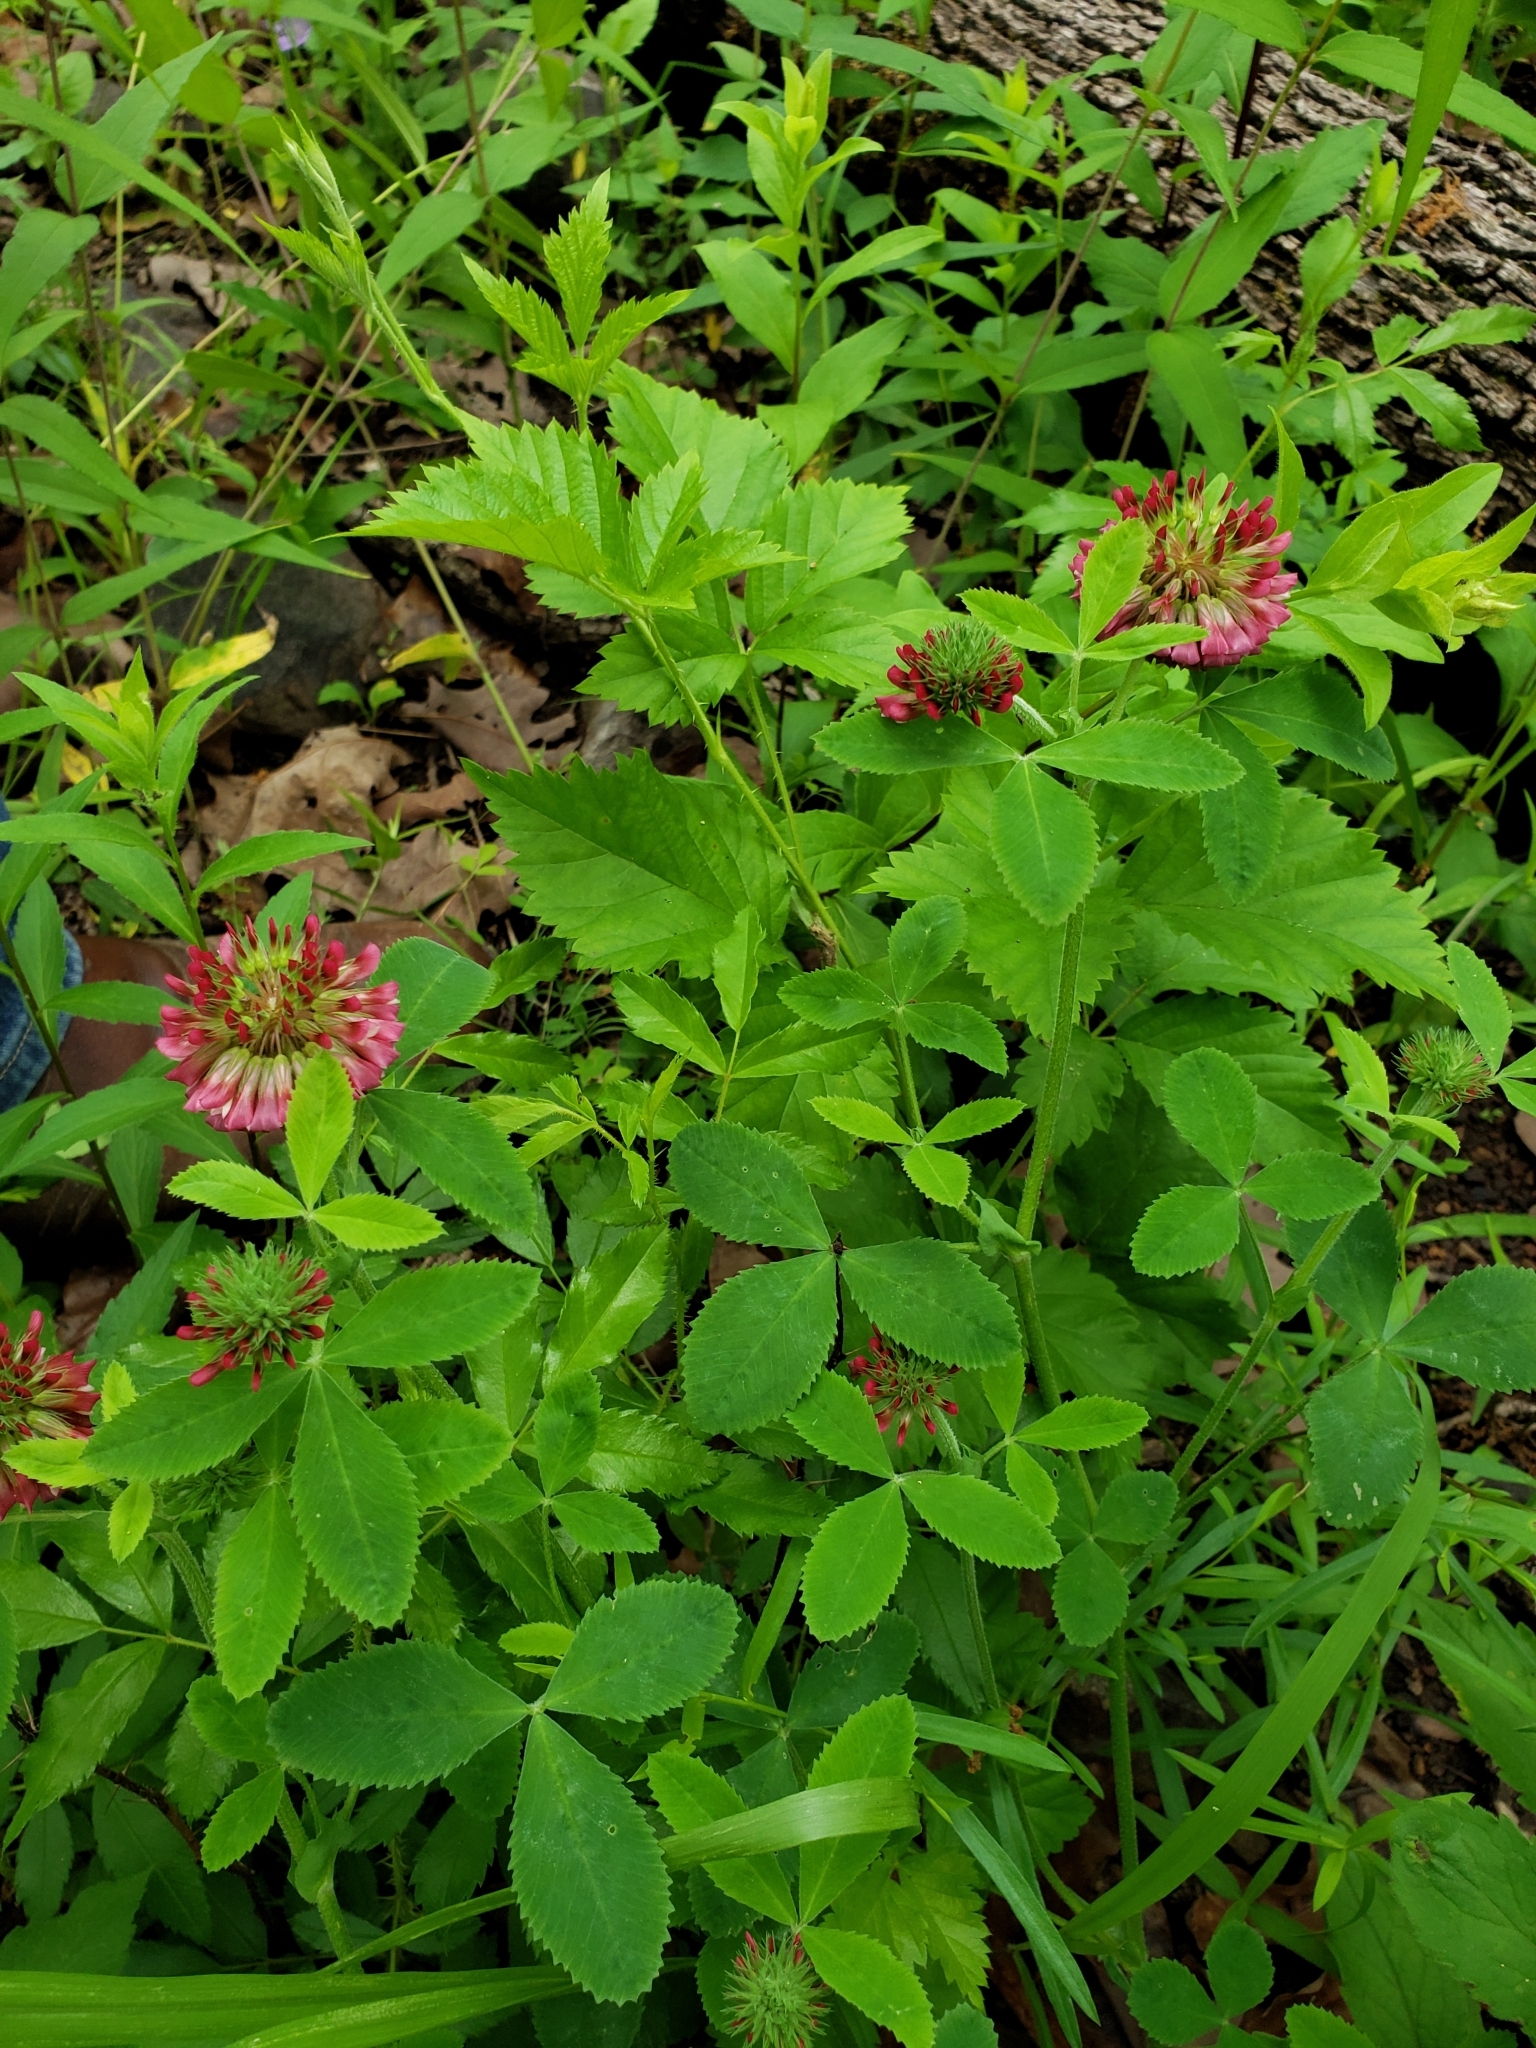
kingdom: Plantae
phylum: Tracheophyta
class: Magnoliopsida
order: Fabales
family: Fabaceae
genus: Trifolium
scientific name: Trifolium reflexum
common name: Buffalo clover
